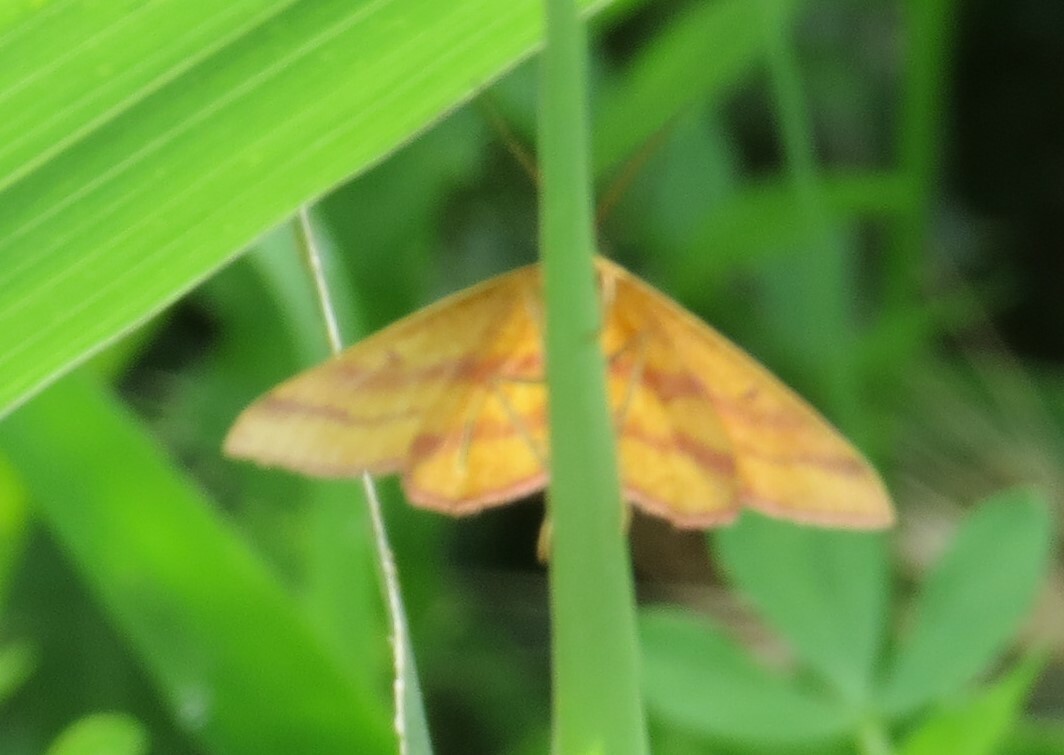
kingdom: Animalia
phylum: Arthropoda
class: Insecta
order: Lepidoptera
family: Geometridae
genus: Haematopis
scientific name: Haematopis grataria
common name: Chickweed geometer
